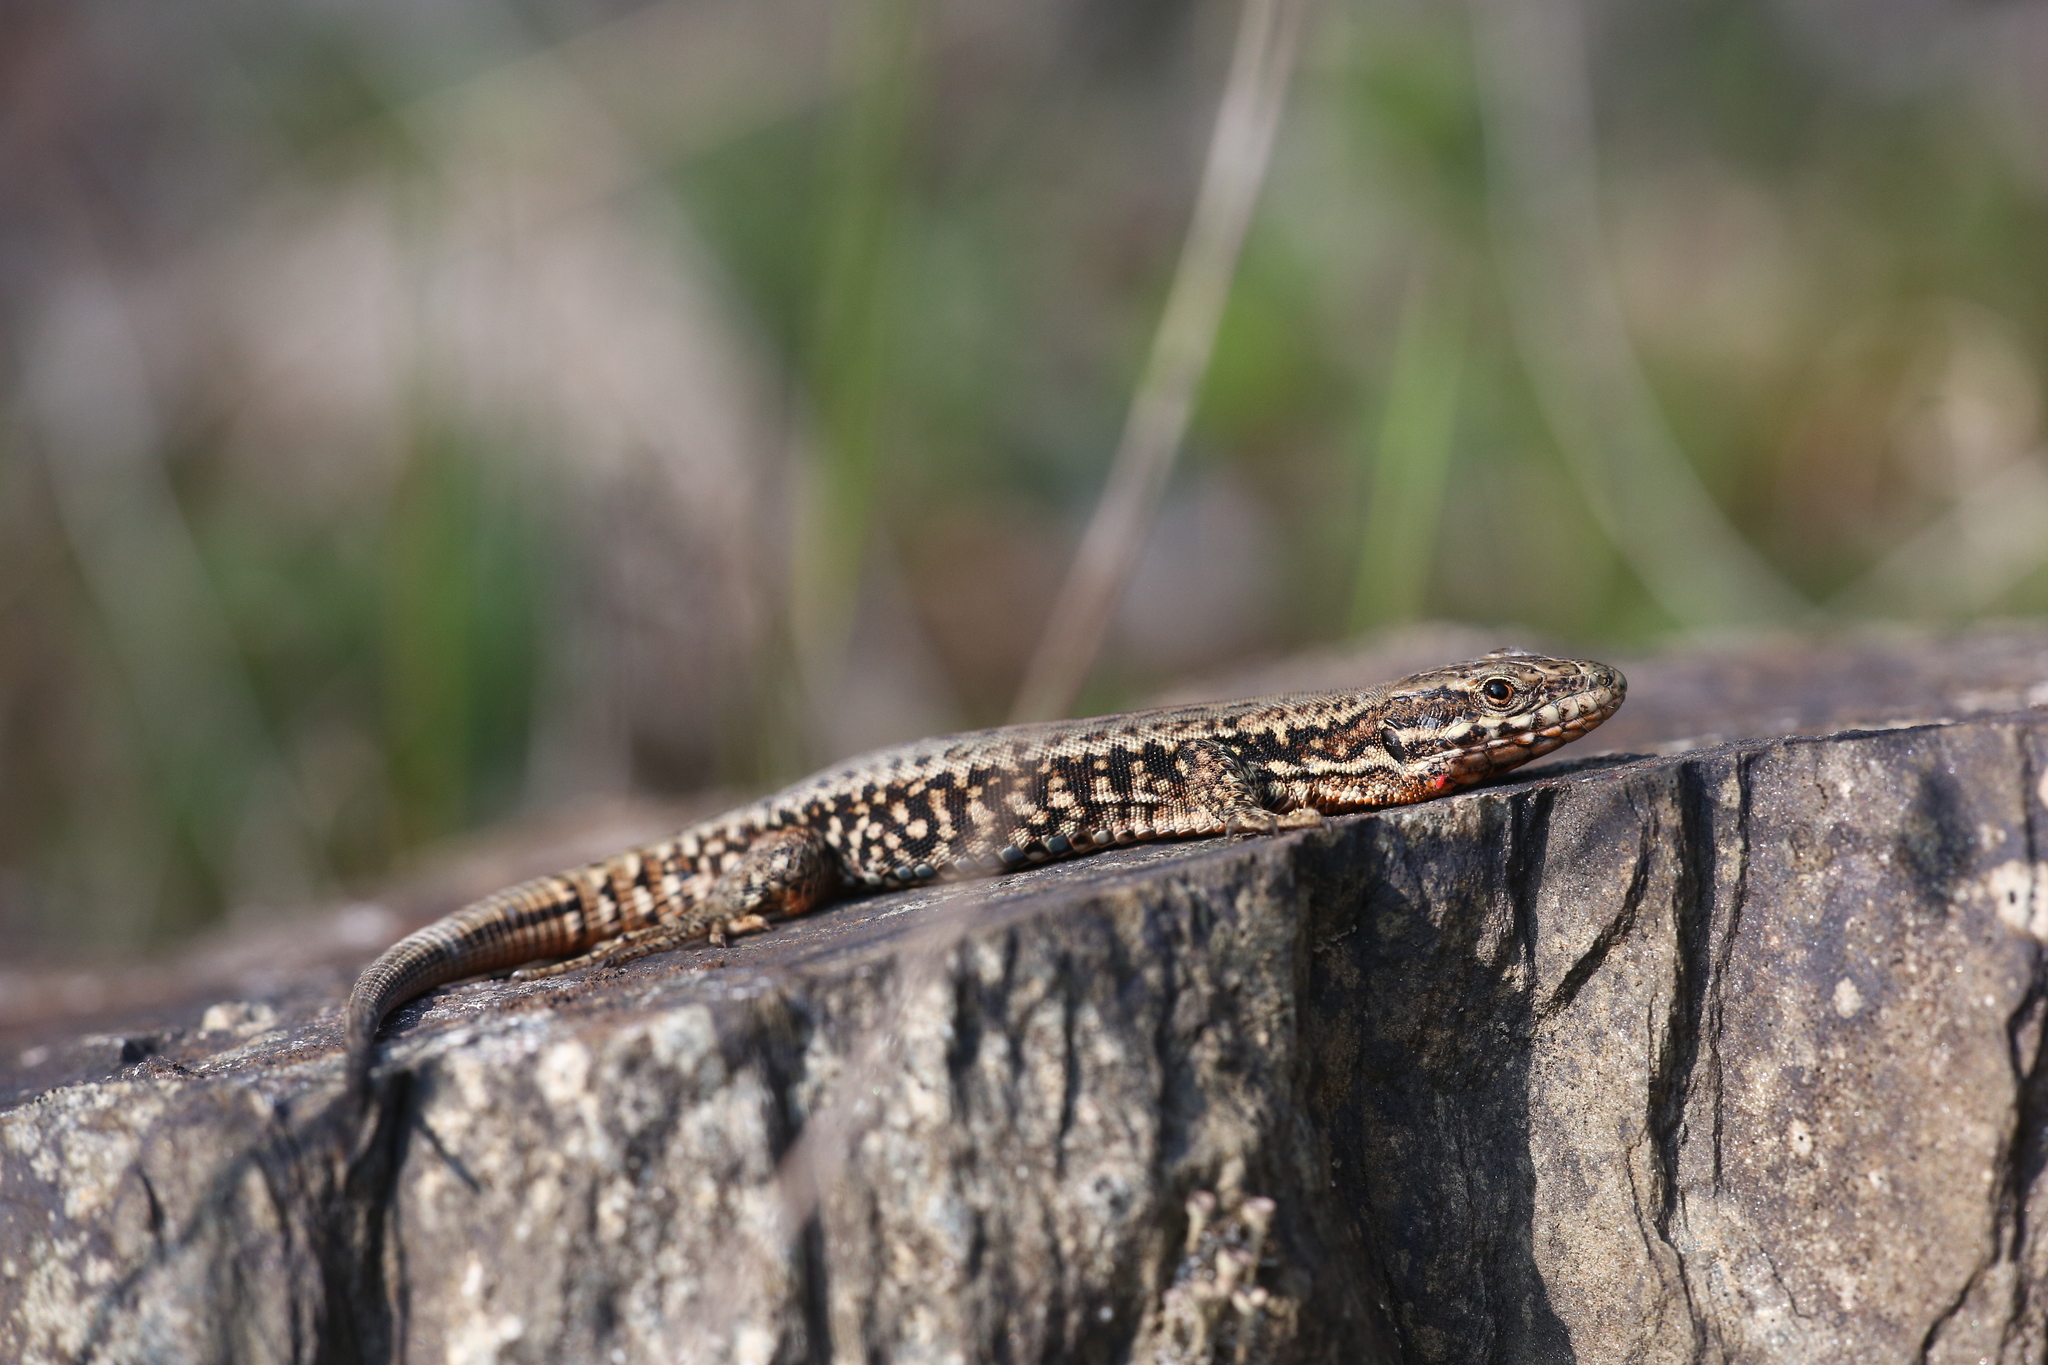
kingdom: Animalia
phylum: Chordata
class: Squamata
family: Lacertidae
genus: Podarcis
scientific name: Podarcis muralis
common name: Common wall lizard
